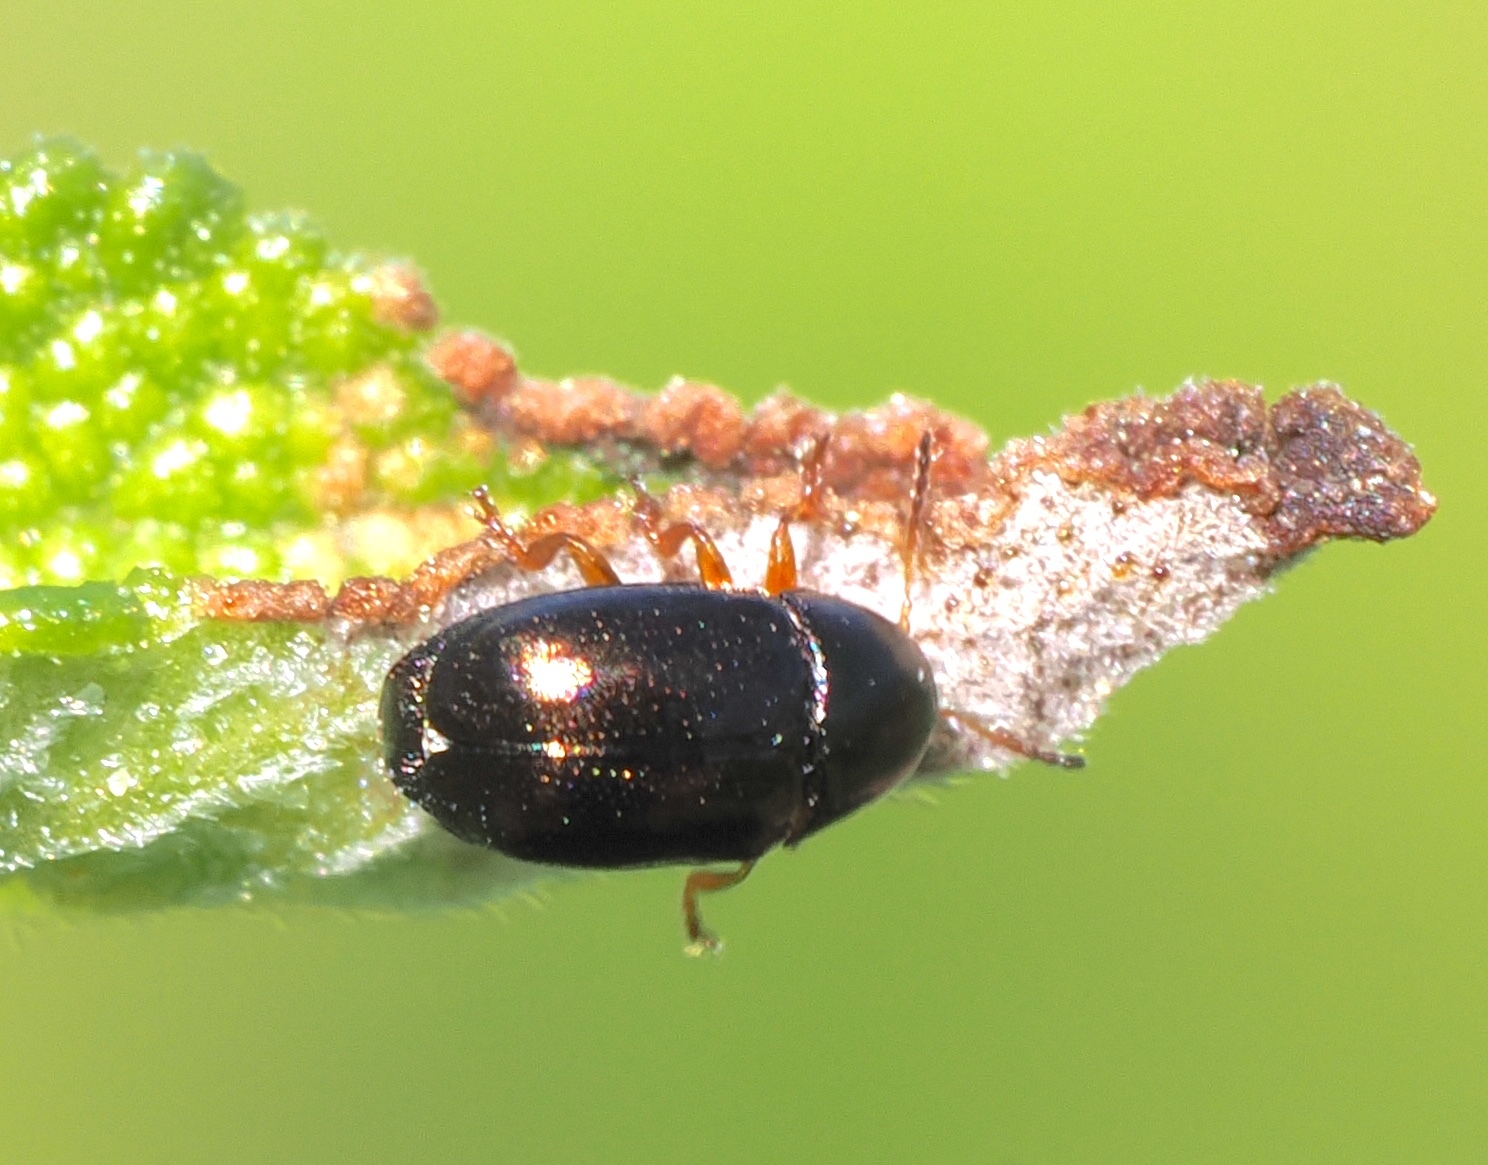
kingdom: Animalia
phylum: Arthropoda
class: Insecta
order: Coleoptera
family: Chrysomelidae
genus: Diachus
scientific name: Diachus auratus
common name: Bronze leaf beetle
